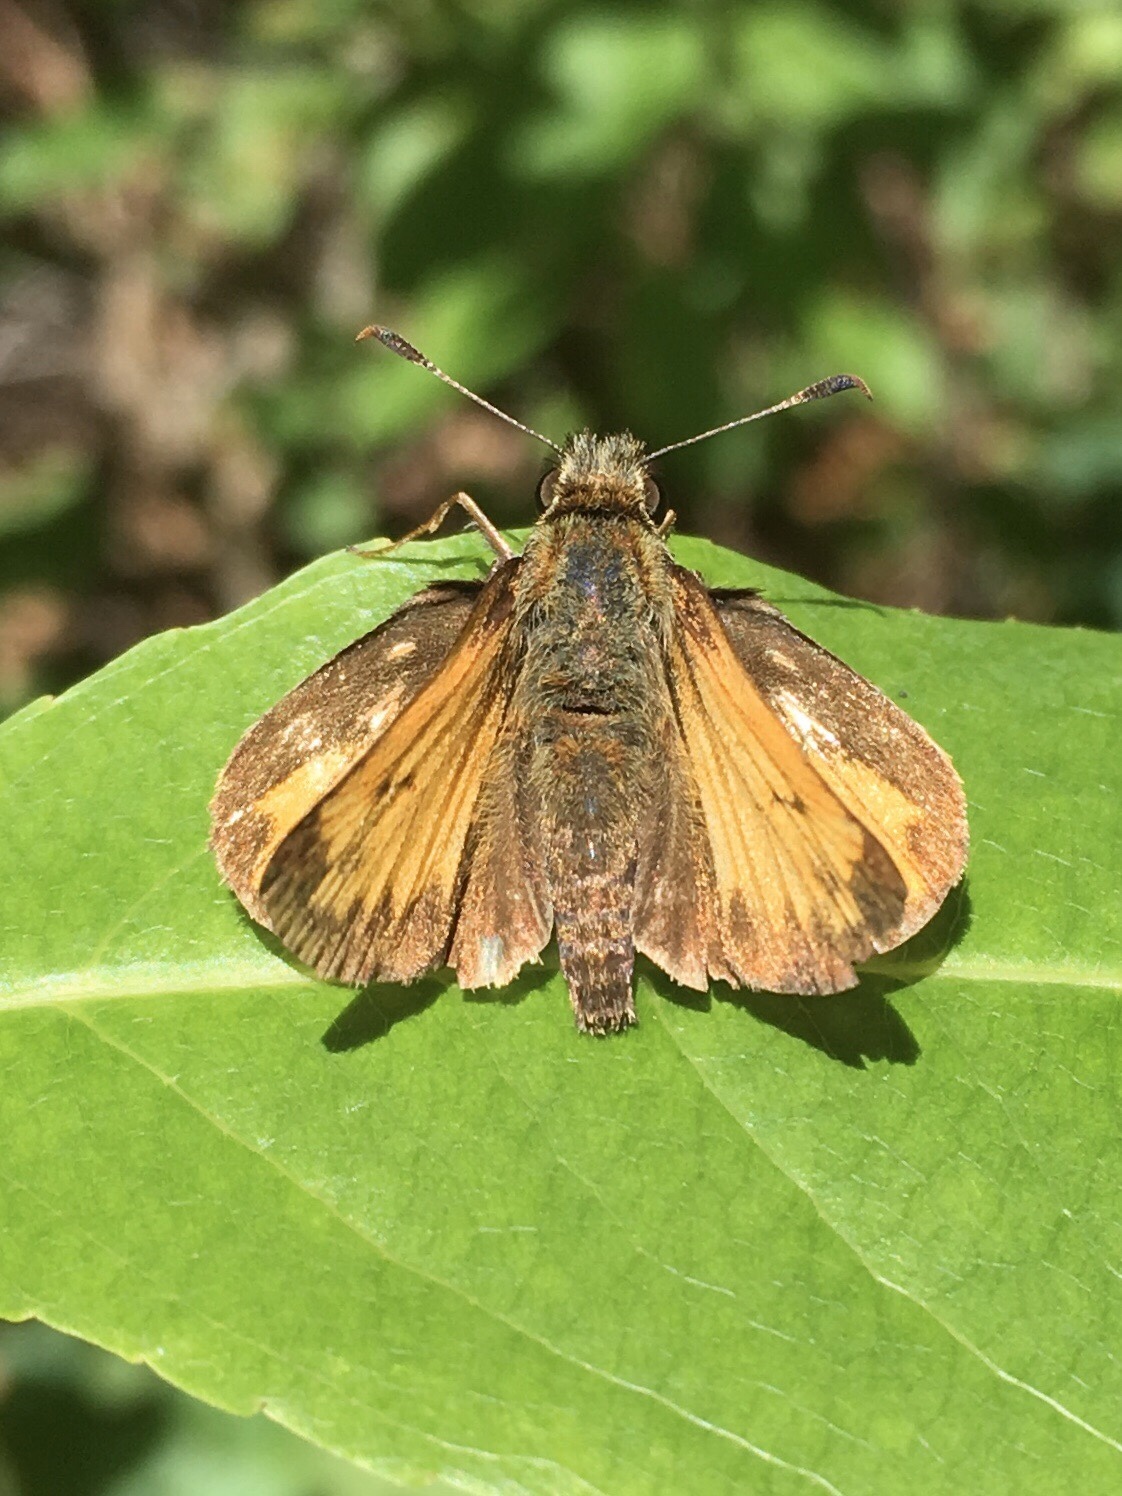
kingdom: Animalia
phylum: Arthropoda
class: Insecta
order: Lepidoptera
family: Hesperiidae
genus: Lon
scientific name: Lon hobomok
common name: Hobomok skipper
